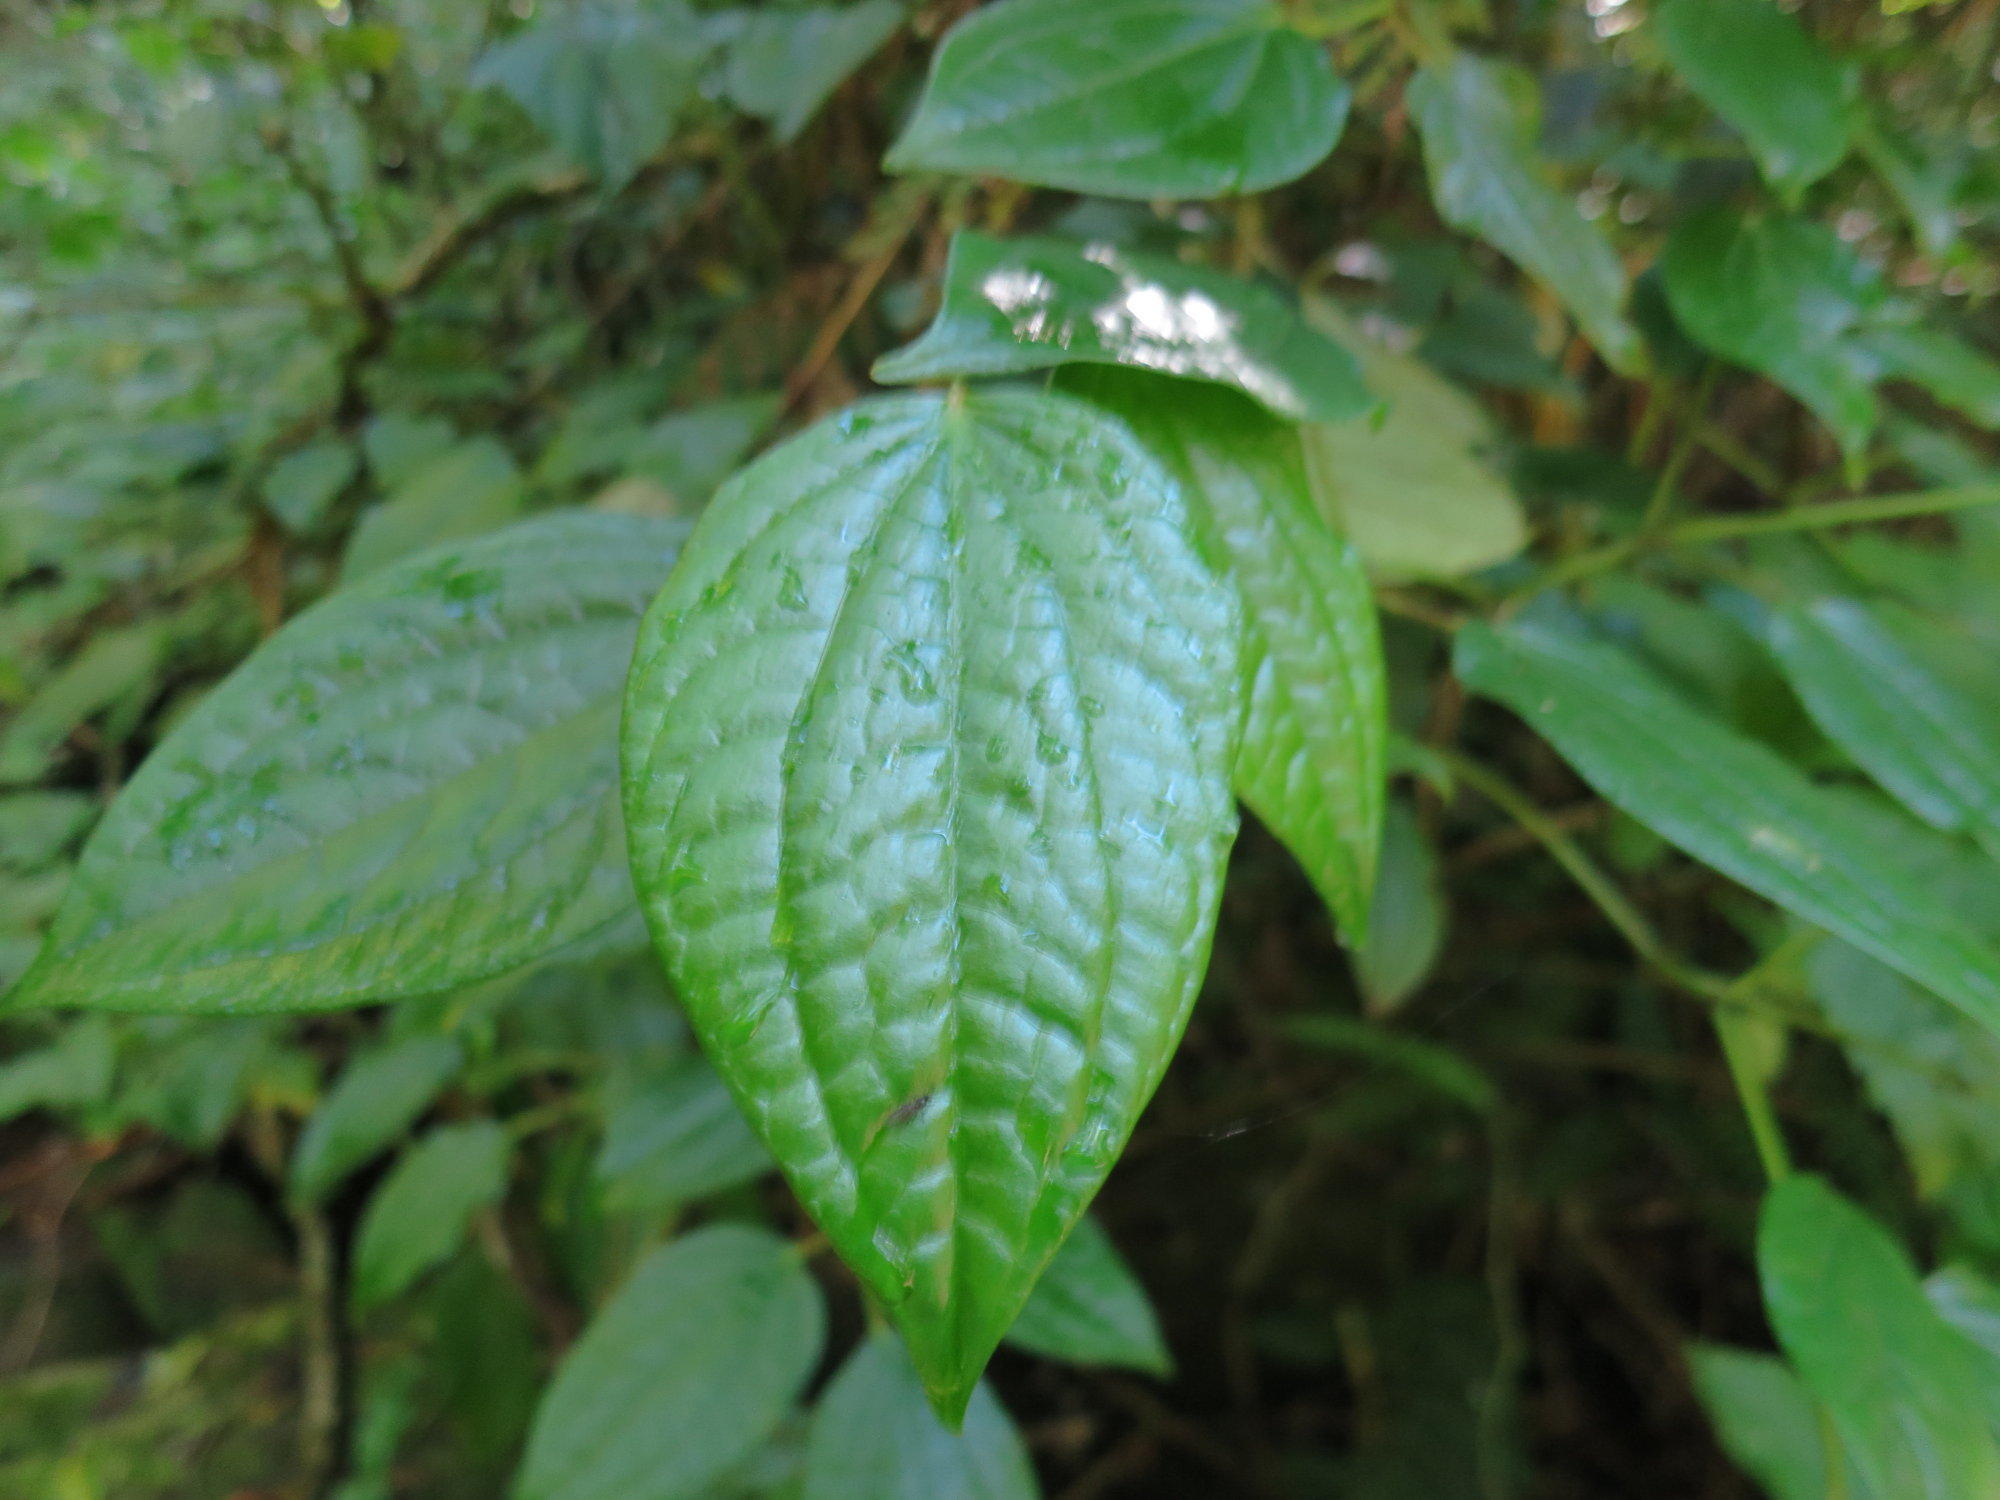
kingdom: Plantae
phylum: Tracheophyta
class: Magnoliopsida
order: Piperales
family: Piperaceae
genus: Piper
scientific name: Piper capense
